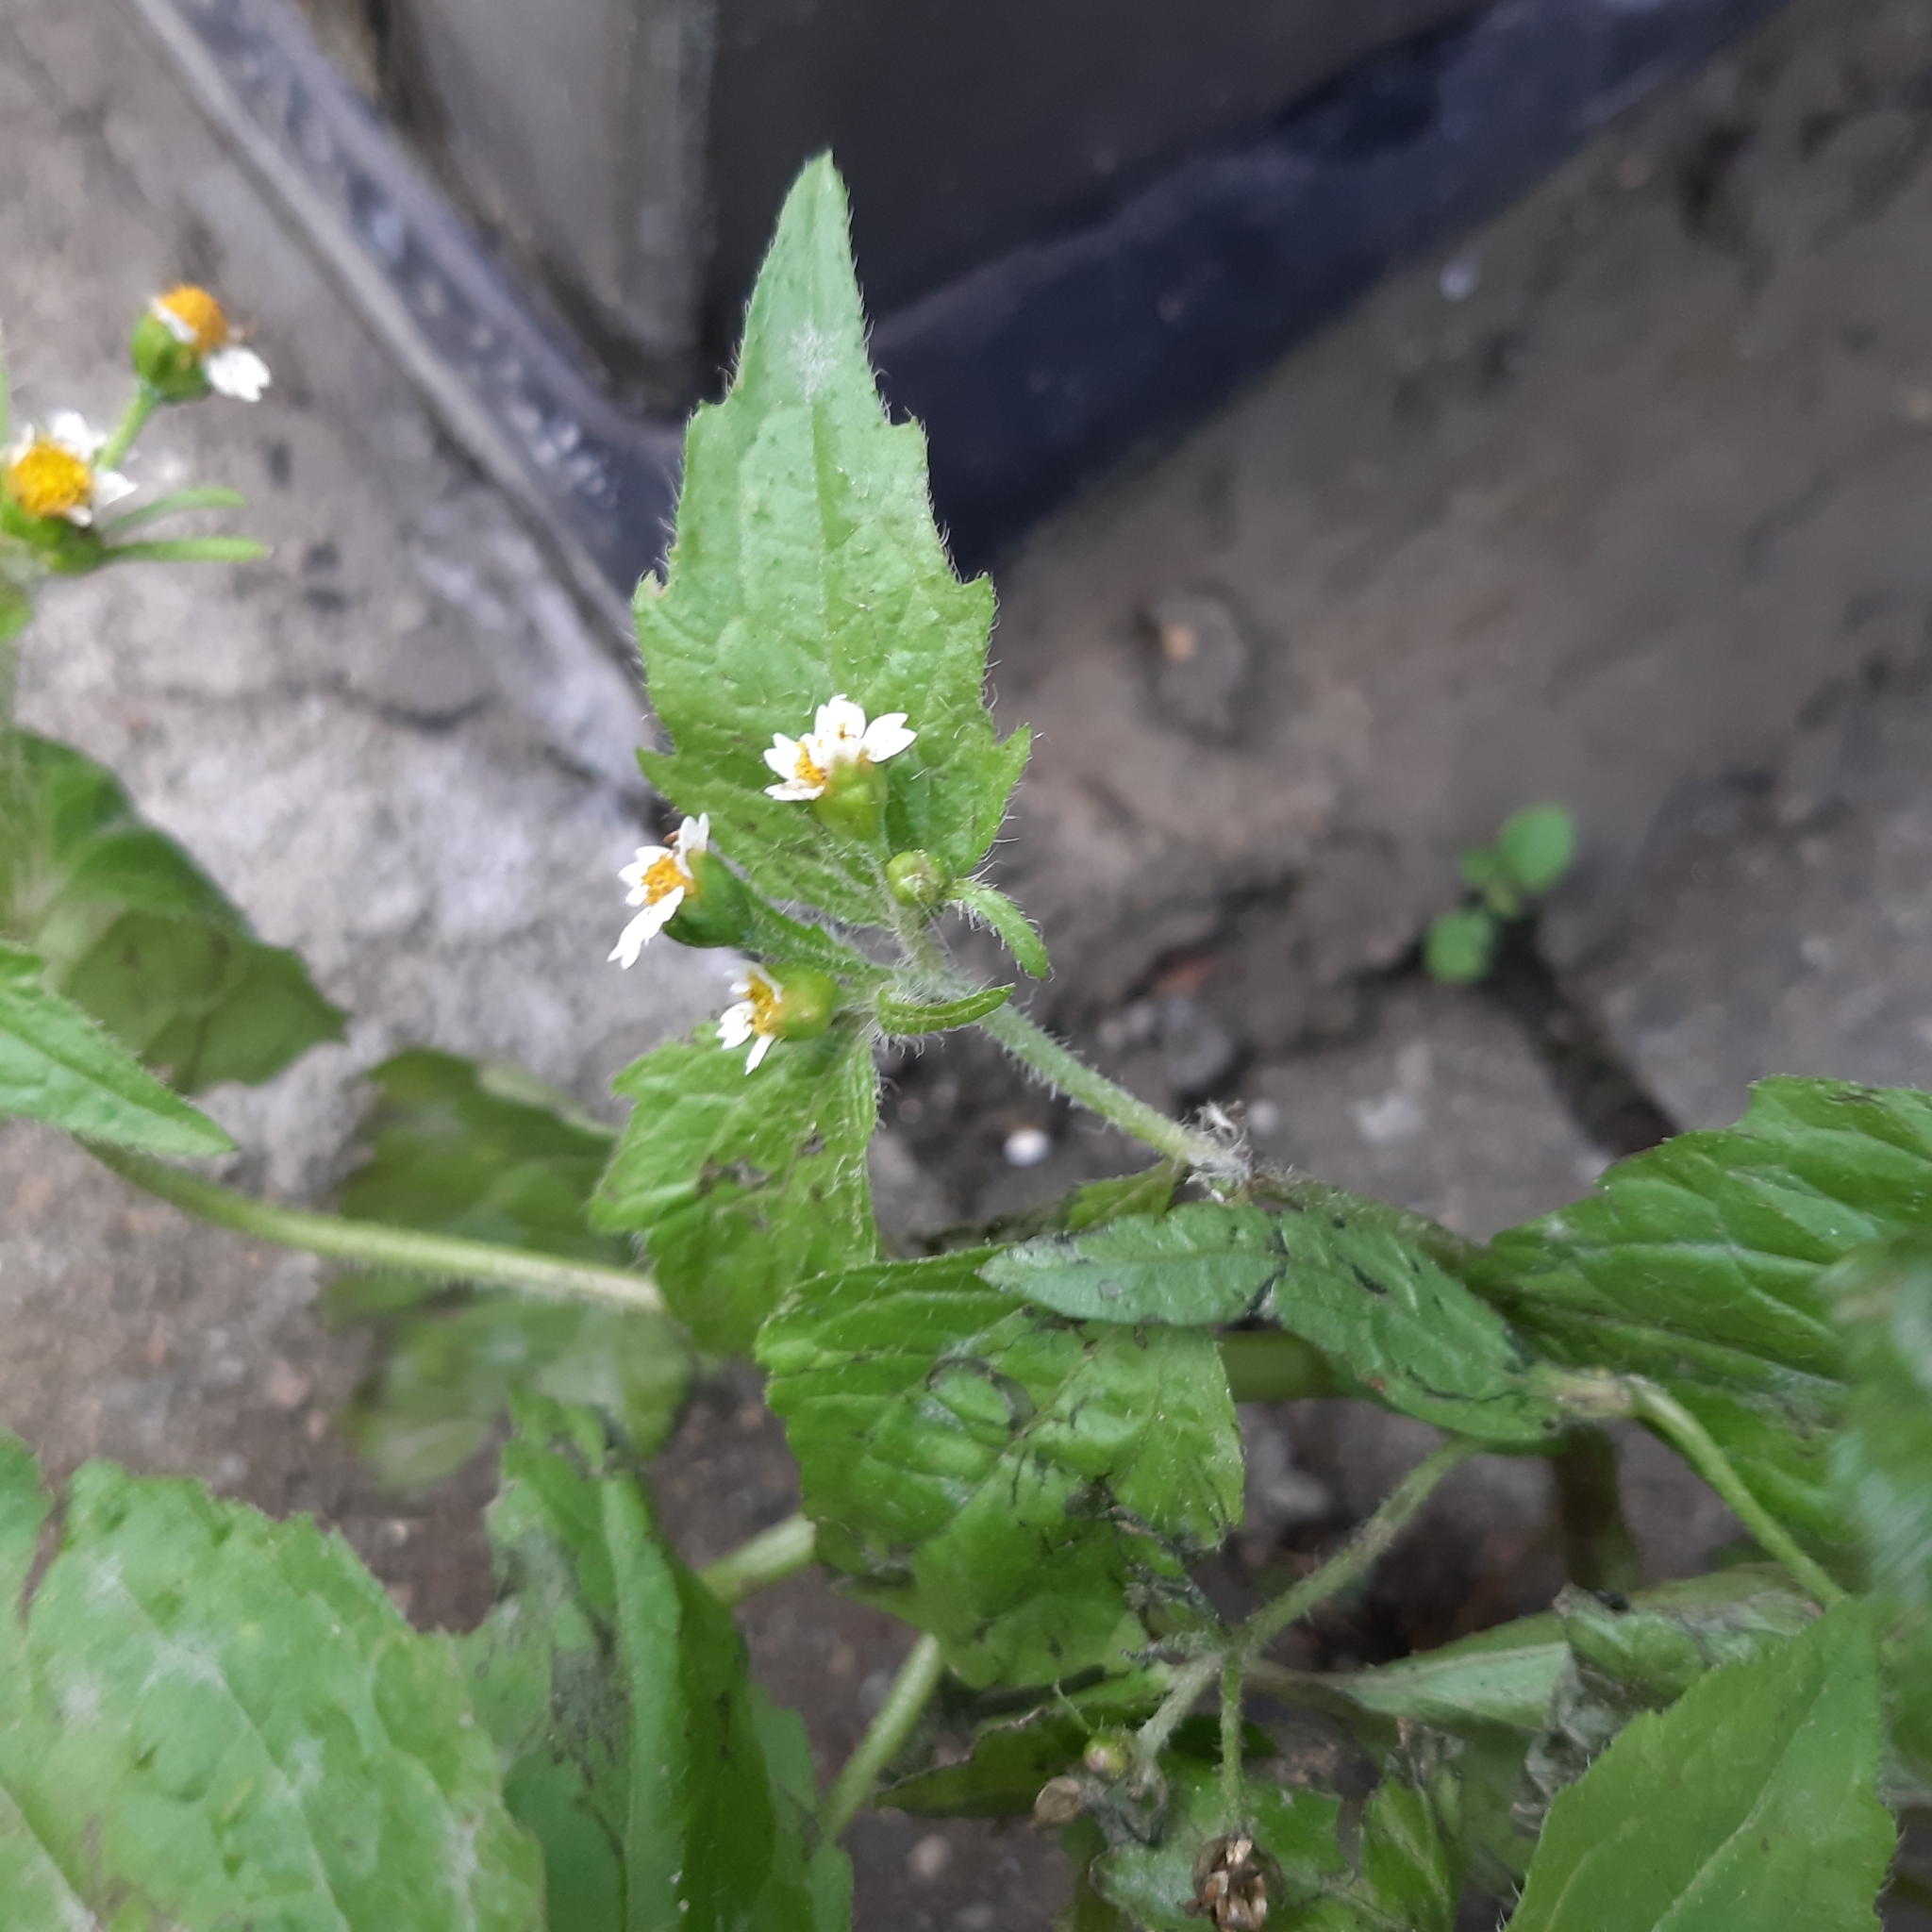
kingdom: Plantae
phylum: Tracheophyta
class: Magnoliopsida
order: Asterales
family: Asteraceae
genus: Galinsoga
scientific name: Galinsoga quadriradiata
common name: Shaggy soldier
